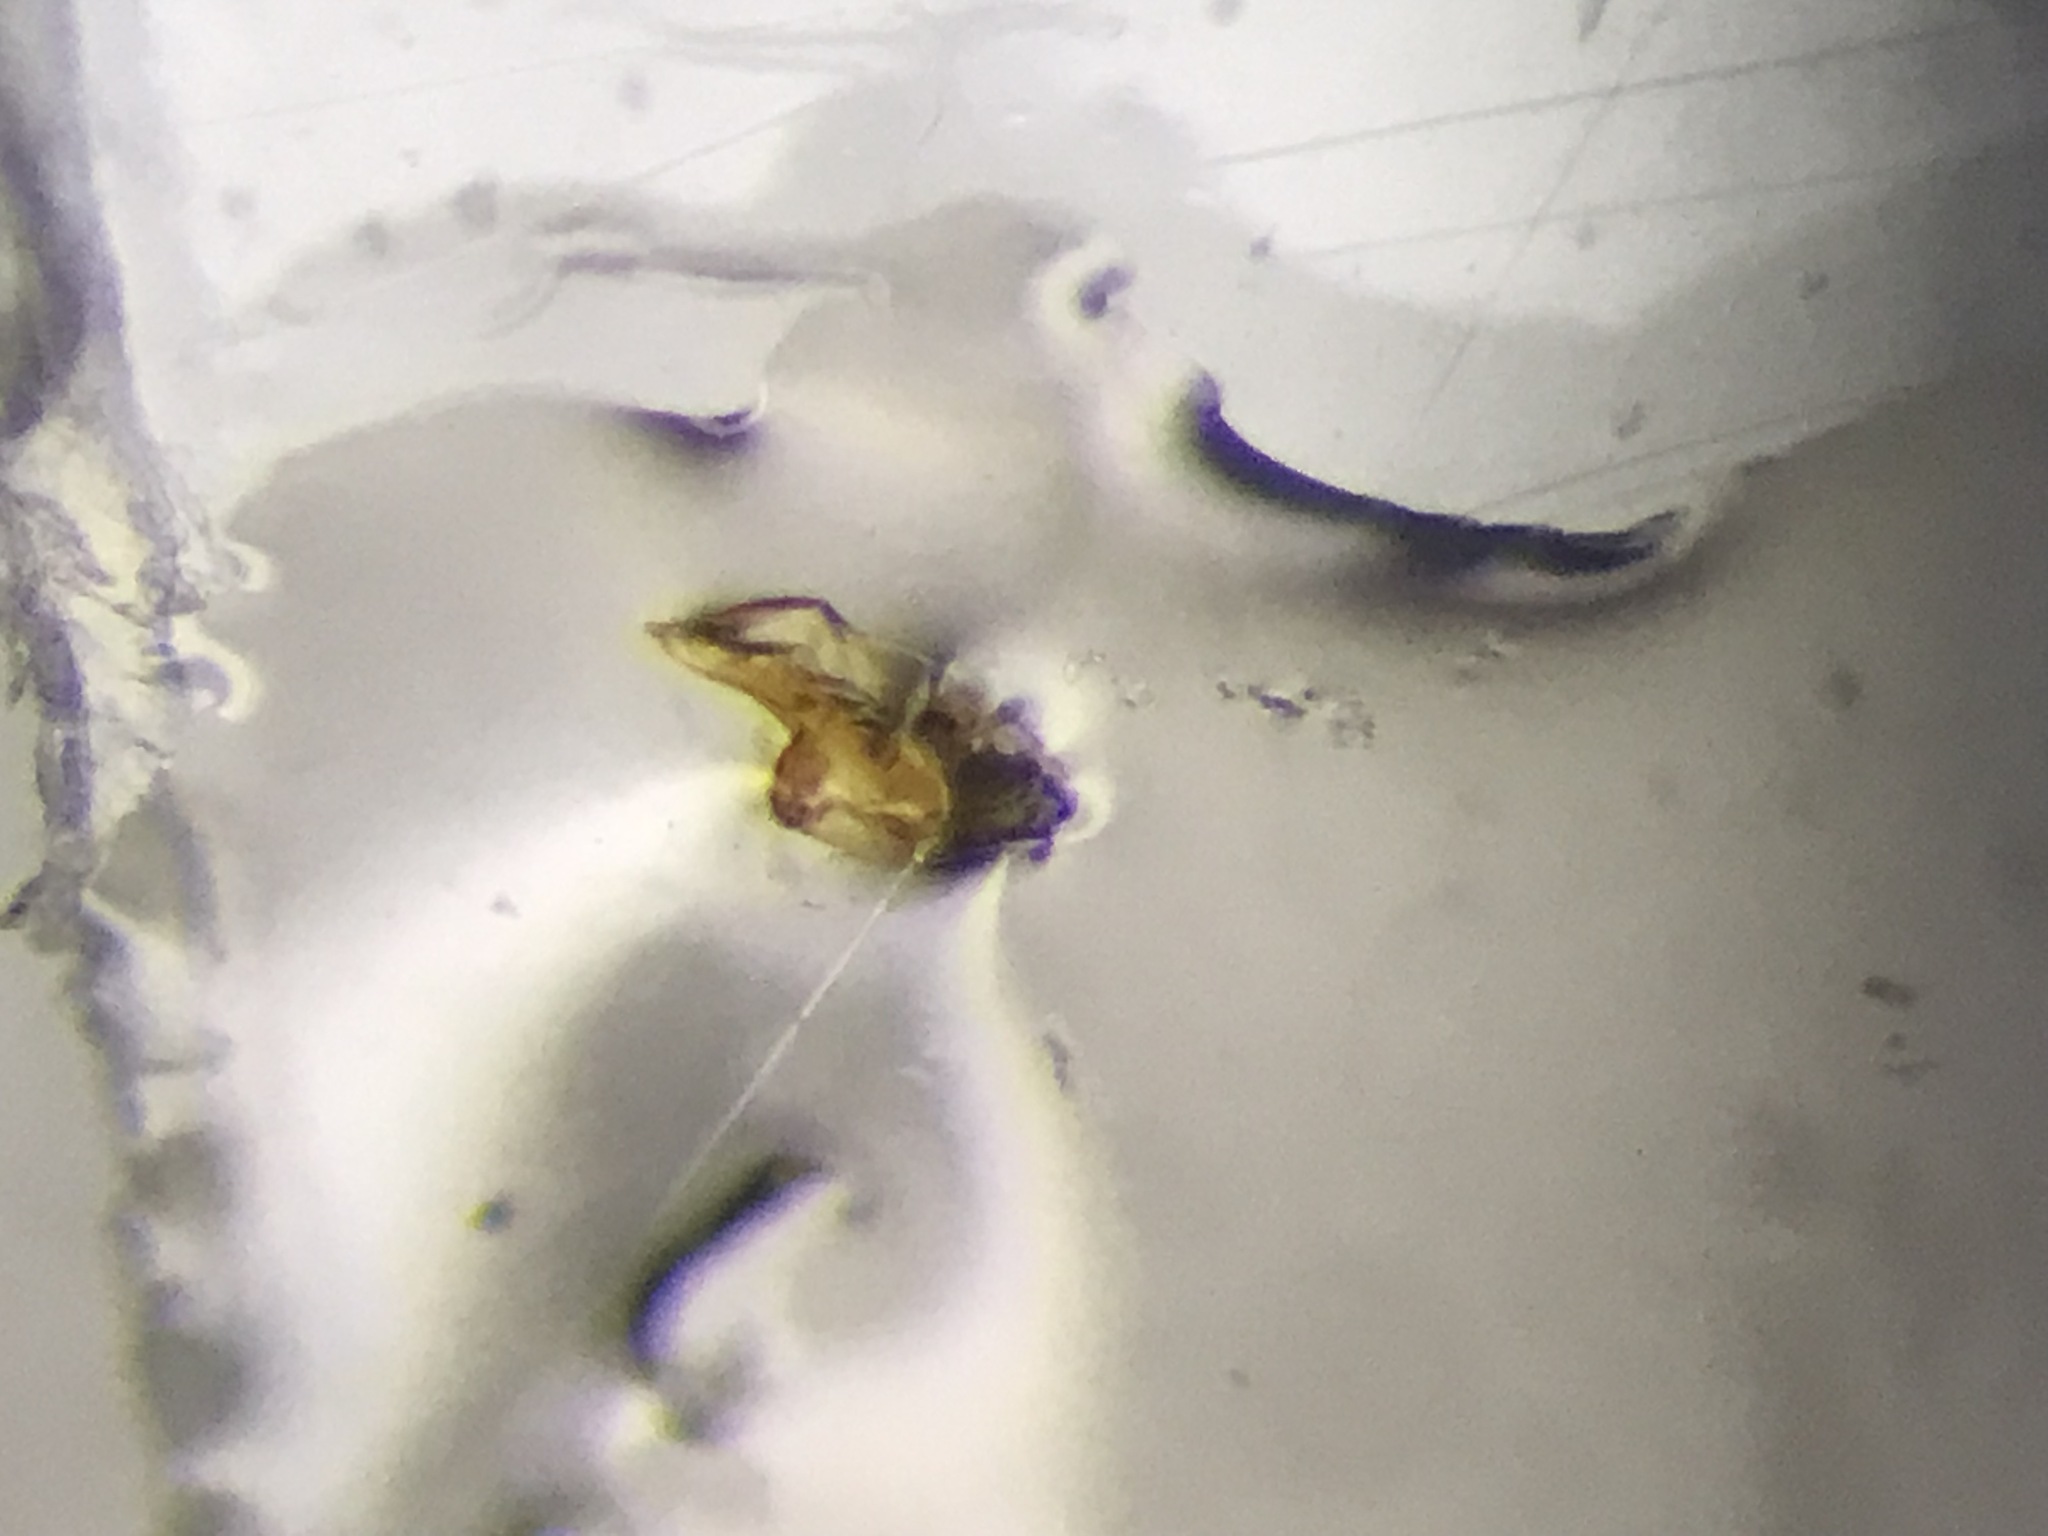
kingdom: Animalia
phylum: Arthropoda
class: Insecta
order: Coleoptera
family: Staphylinidae
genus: Falagria
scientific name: Falagria dissecta
